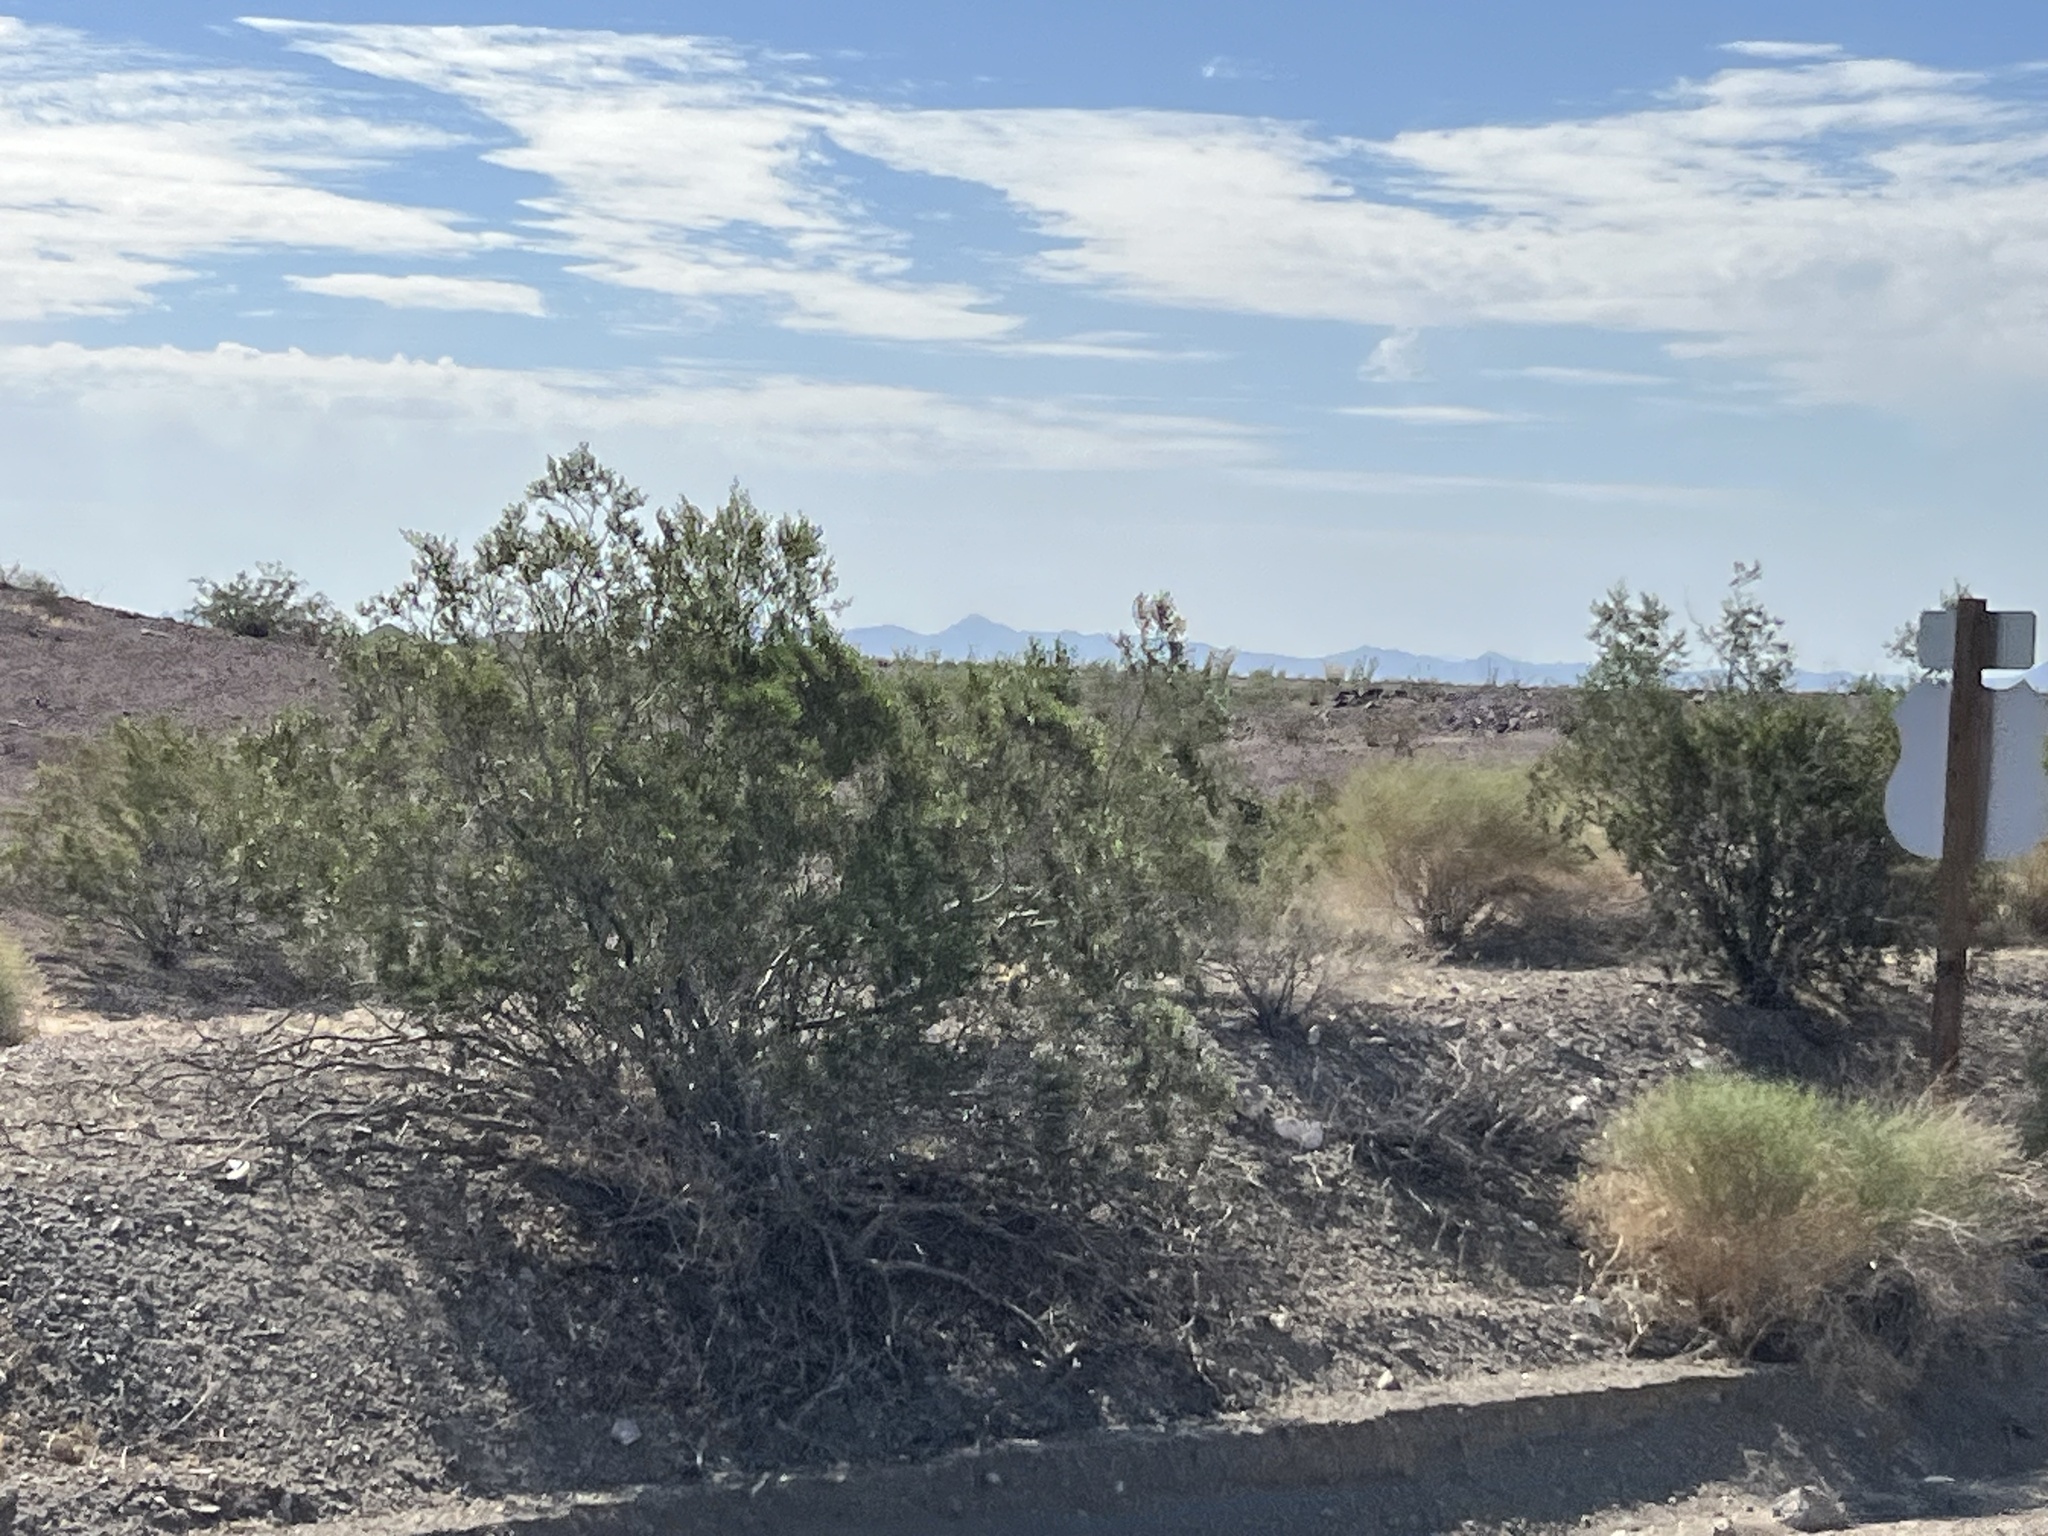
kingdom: Plantae
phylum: Tracheophyta
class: Magnoliopsida
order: Zygophyllales
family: Zygophyllaceae
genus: Larrea
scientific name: Larrea tridentata
